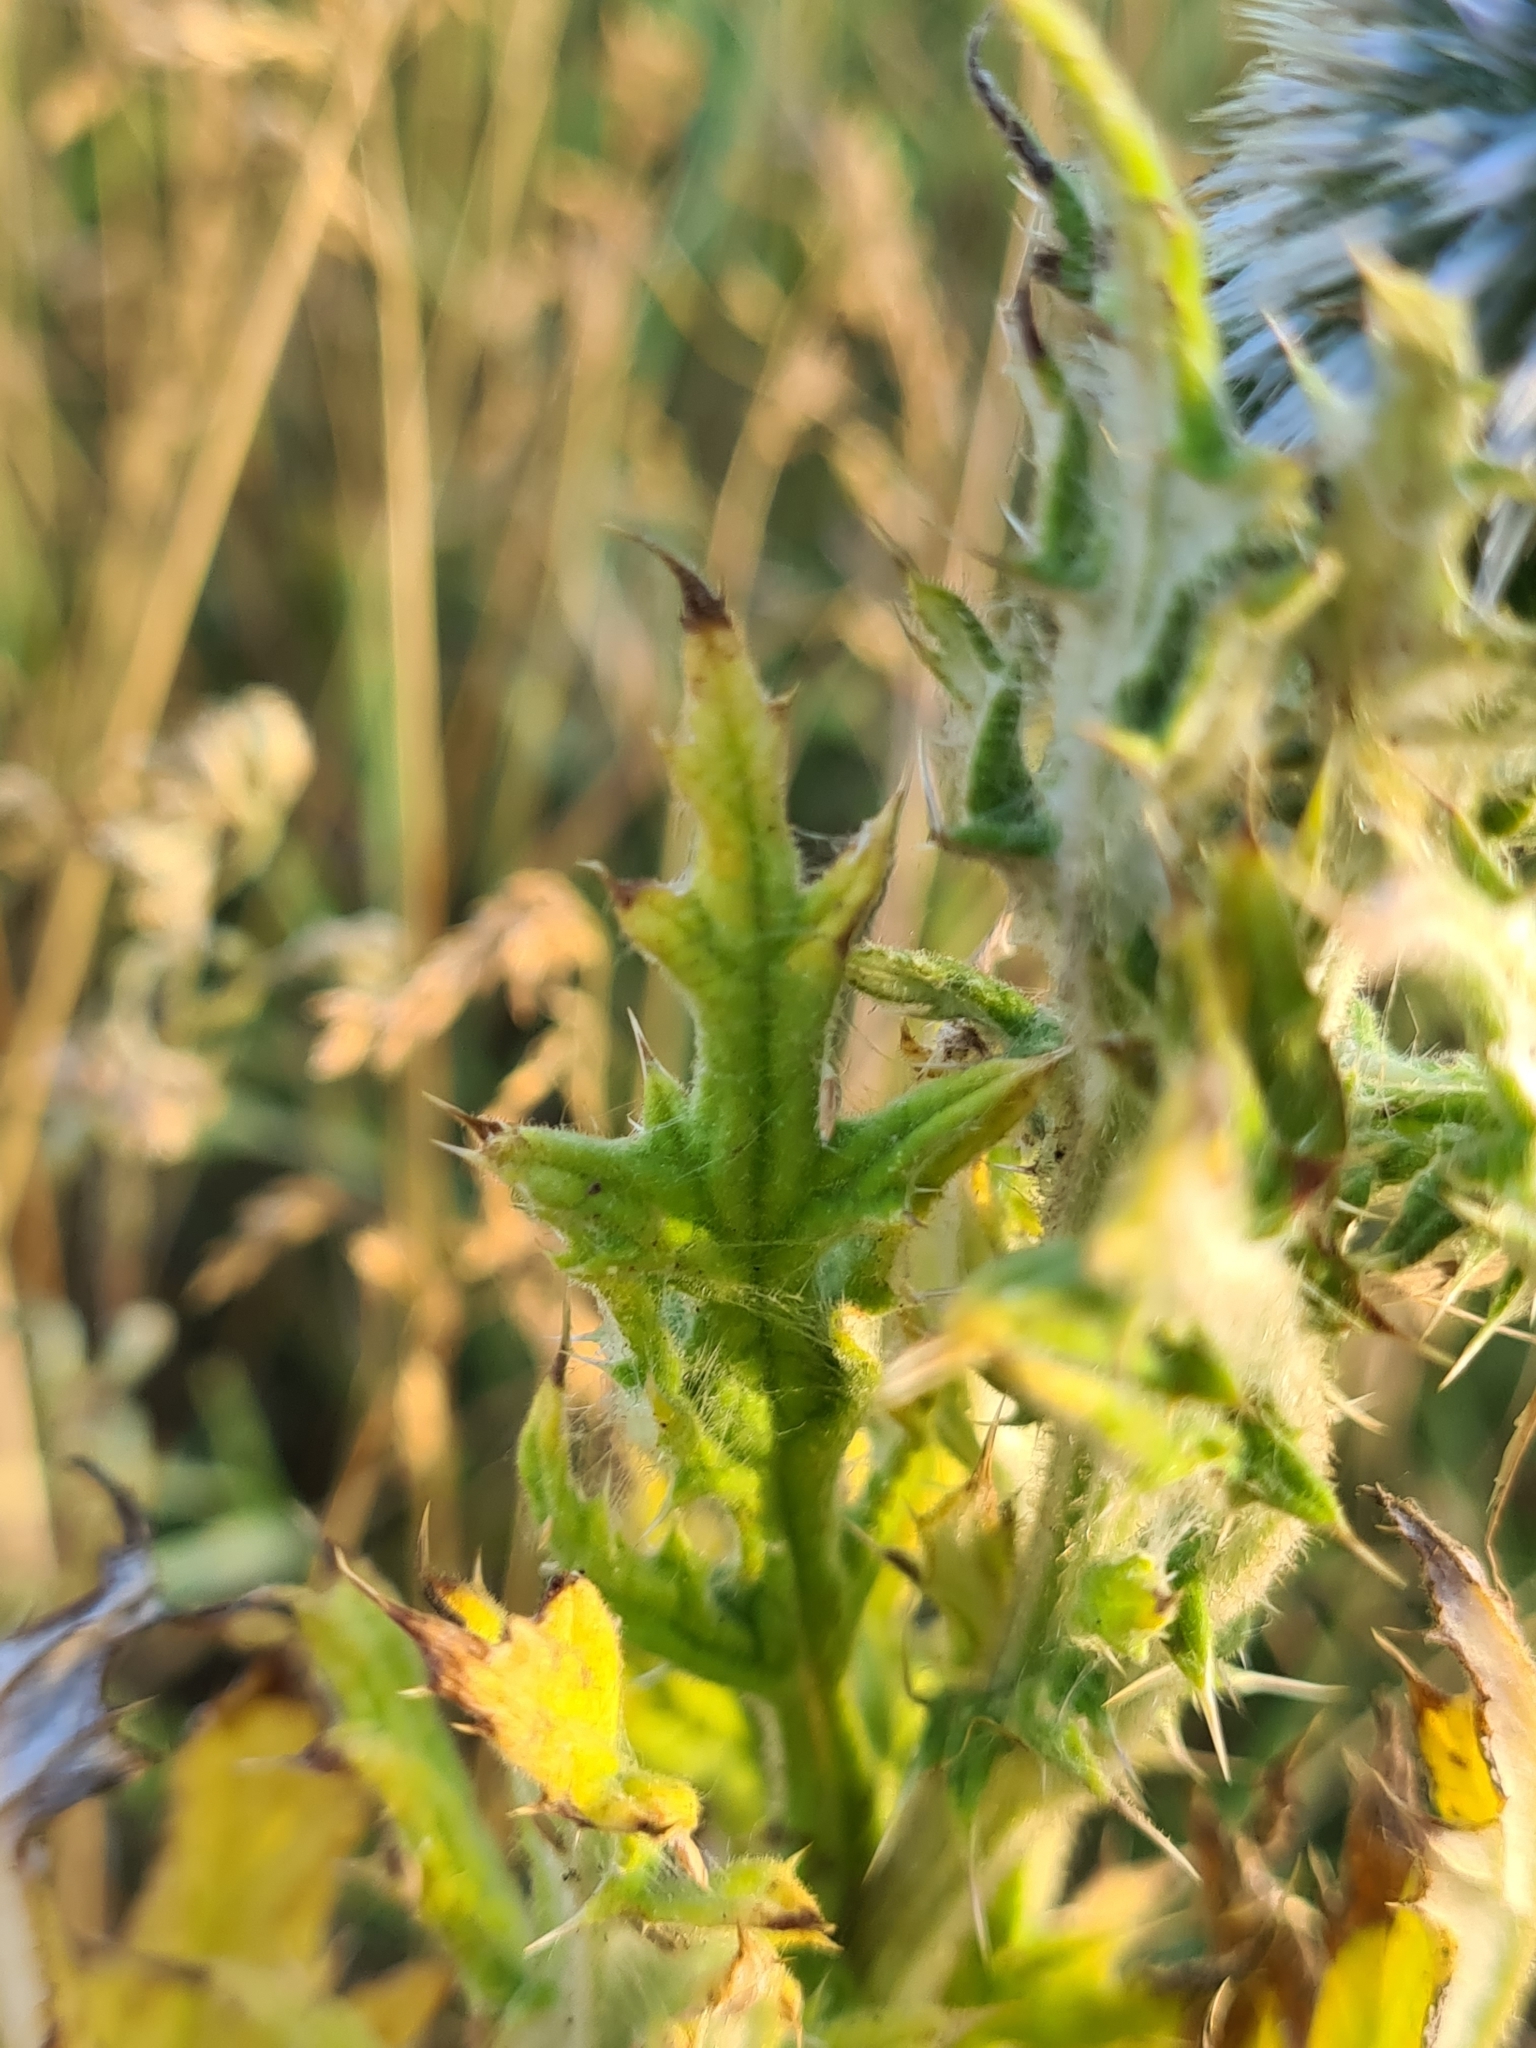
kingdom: Plantae
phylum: Tracheophyta
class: Magnoliopsida
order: Asterales
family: Asteraceae
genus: Echinops
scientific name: Echinops sphaerocephalus
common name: Glandular globe-thistle
